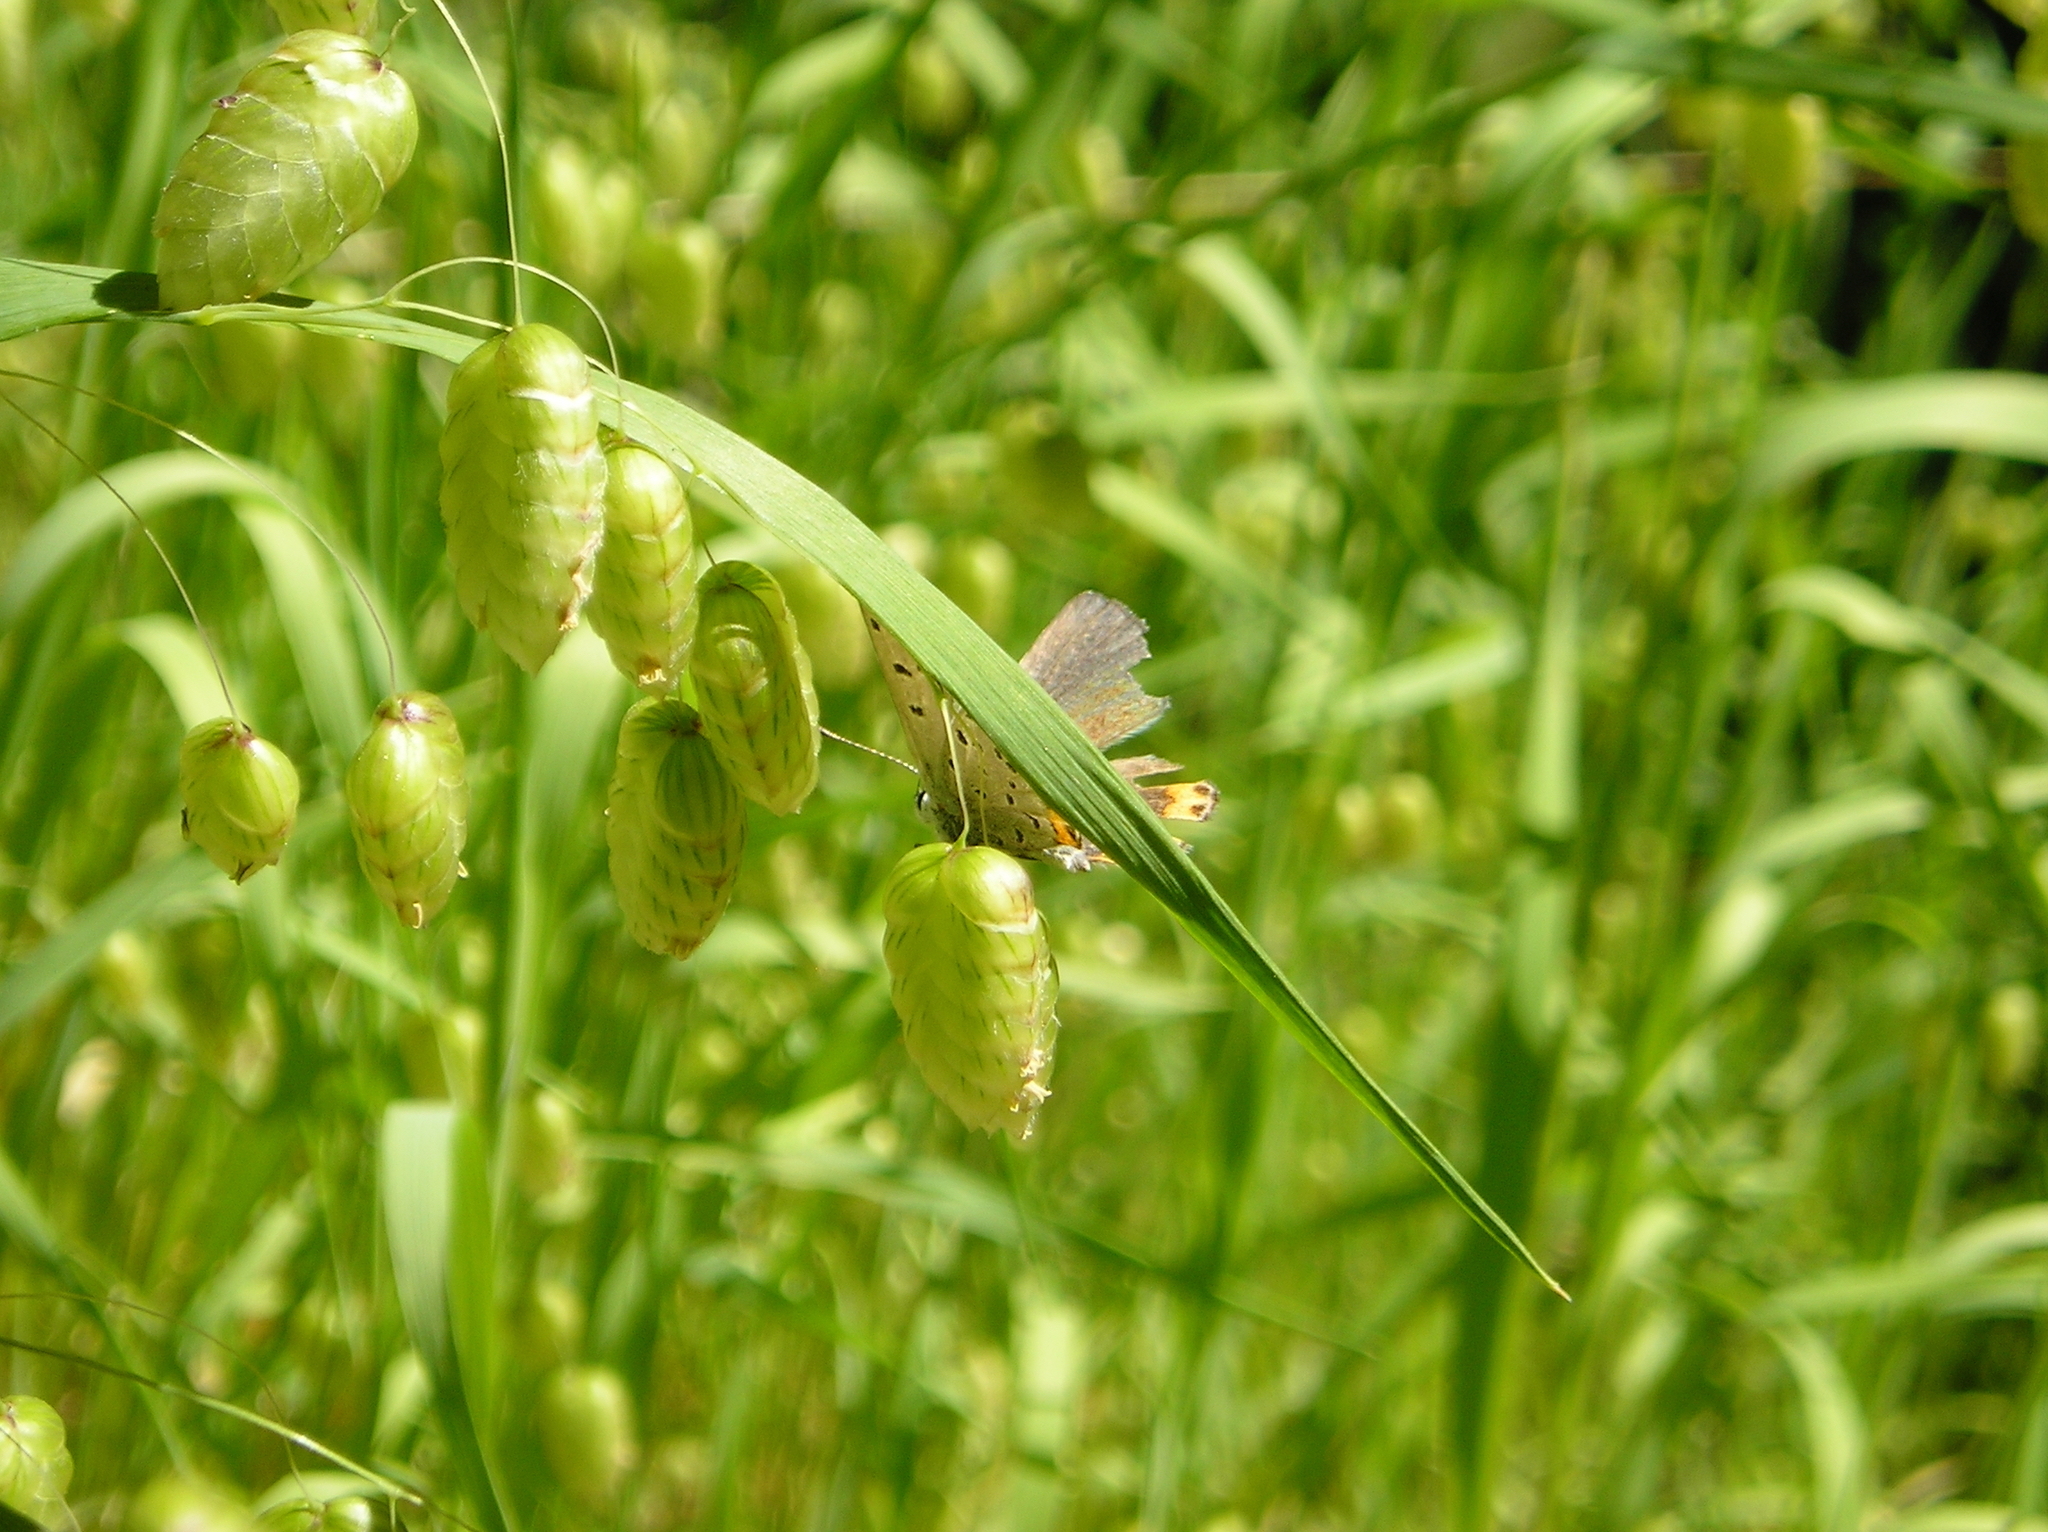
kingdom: Animalia
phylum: Arthropoda
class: Insecta
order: Lepidoptera
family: Lycaenidae
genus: Icaricia
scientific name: Icaricia acmon
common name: Acmon blue
